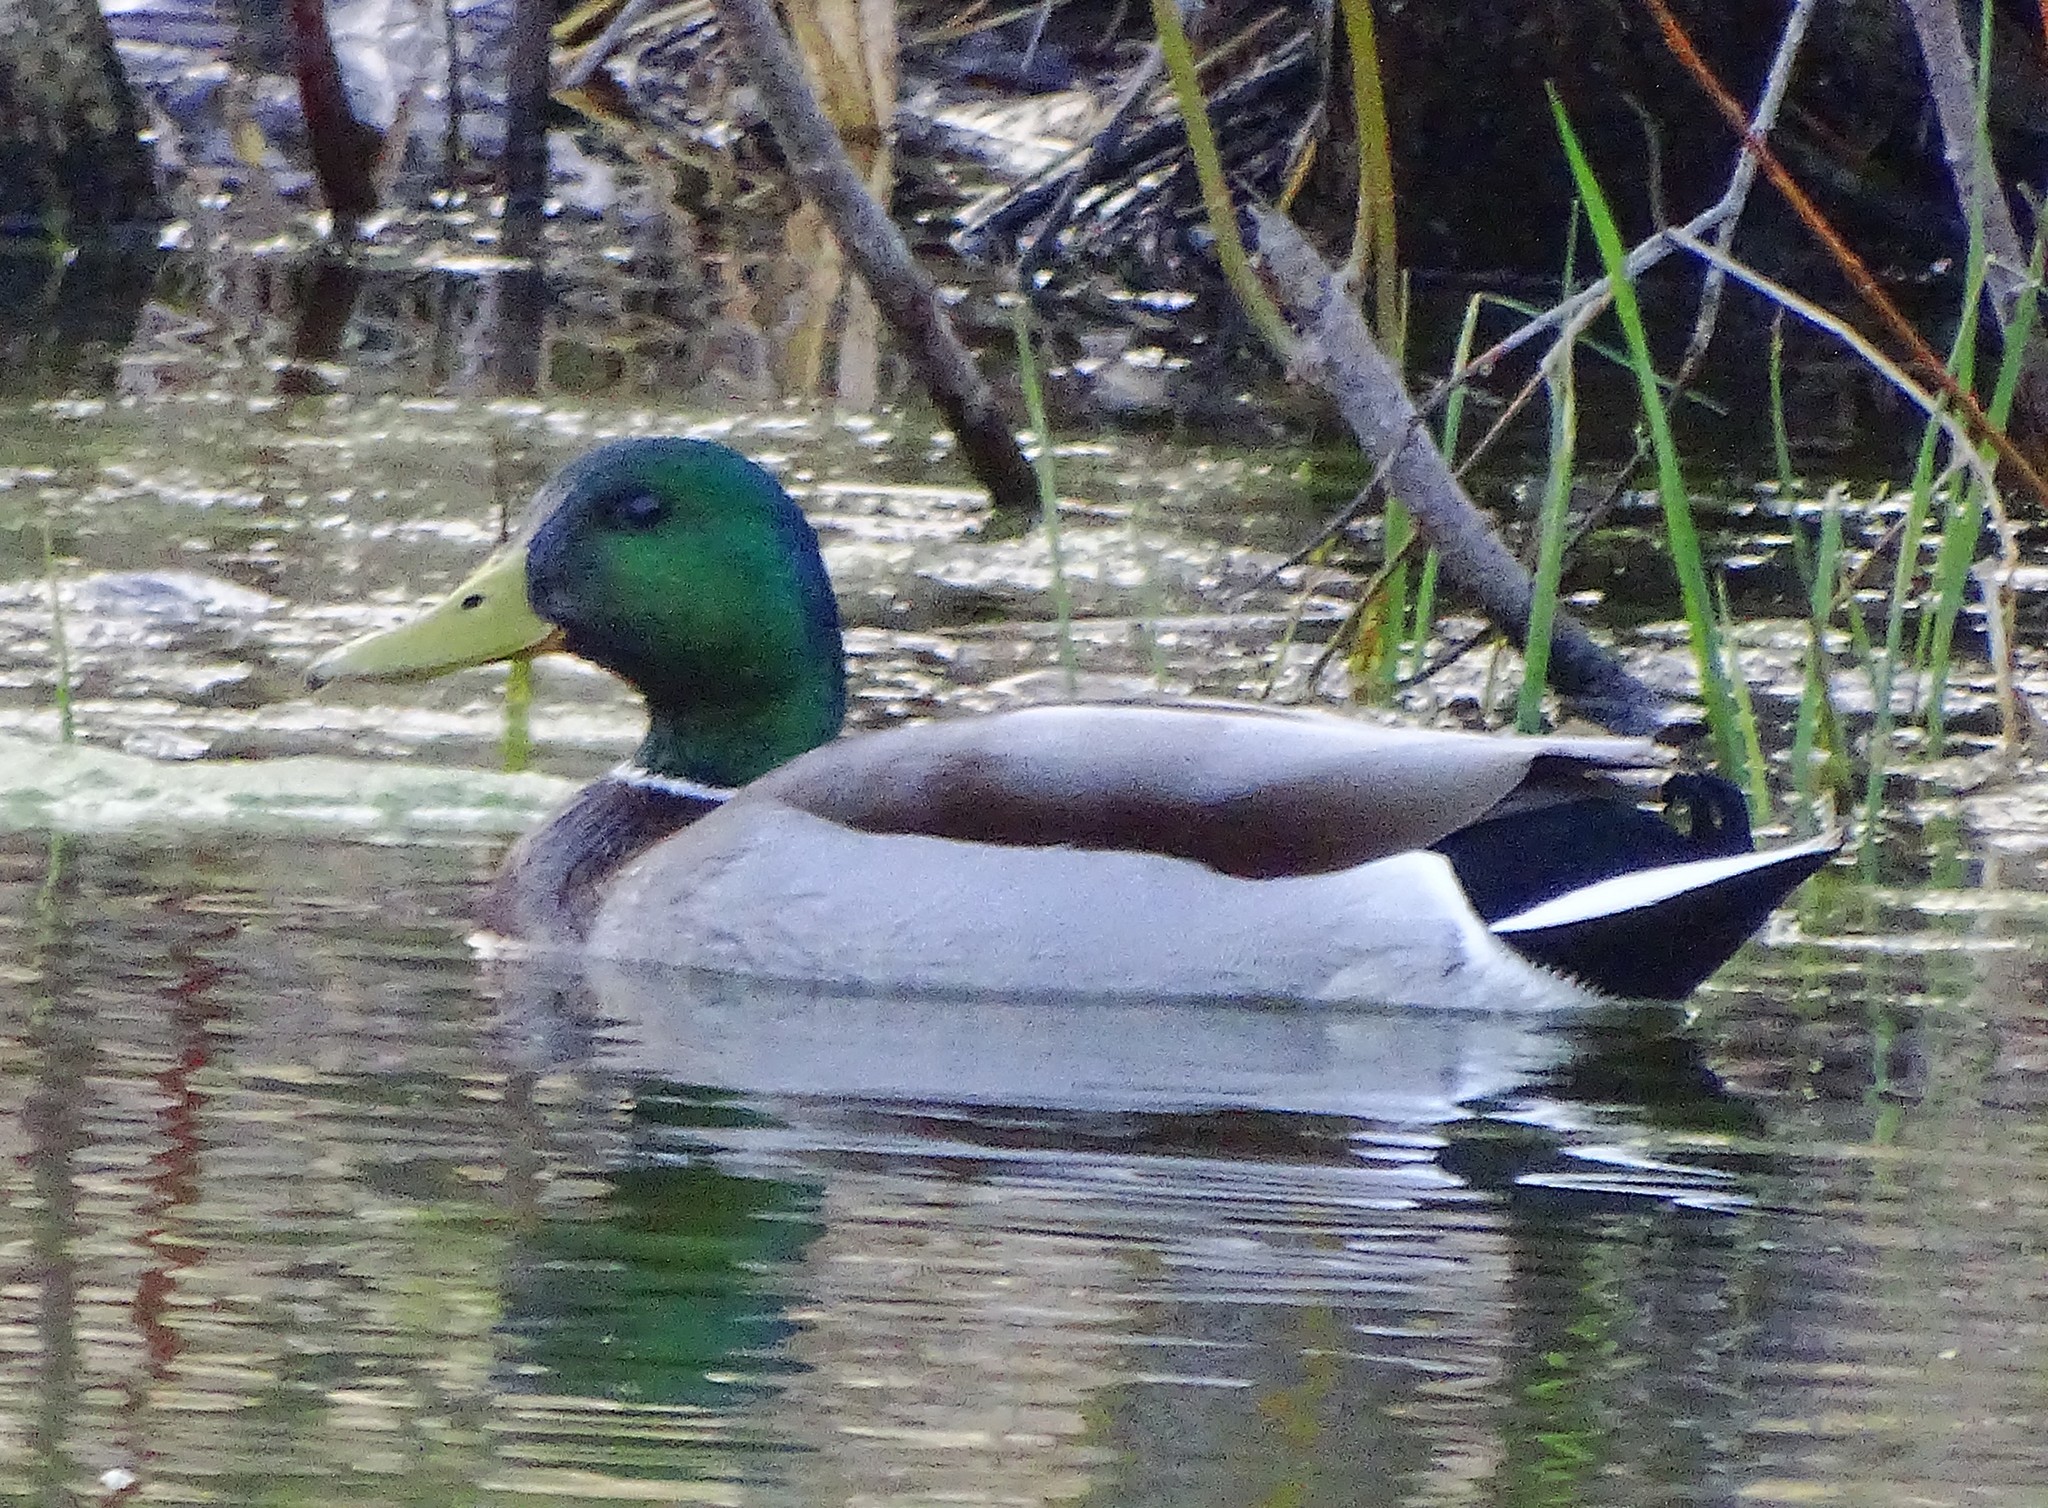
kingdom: Animalia
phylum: Chordata
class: Aves
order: Anseriformes
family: Anatidae
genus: Anas
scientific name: Anas platyrhynchos
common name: Mallard
